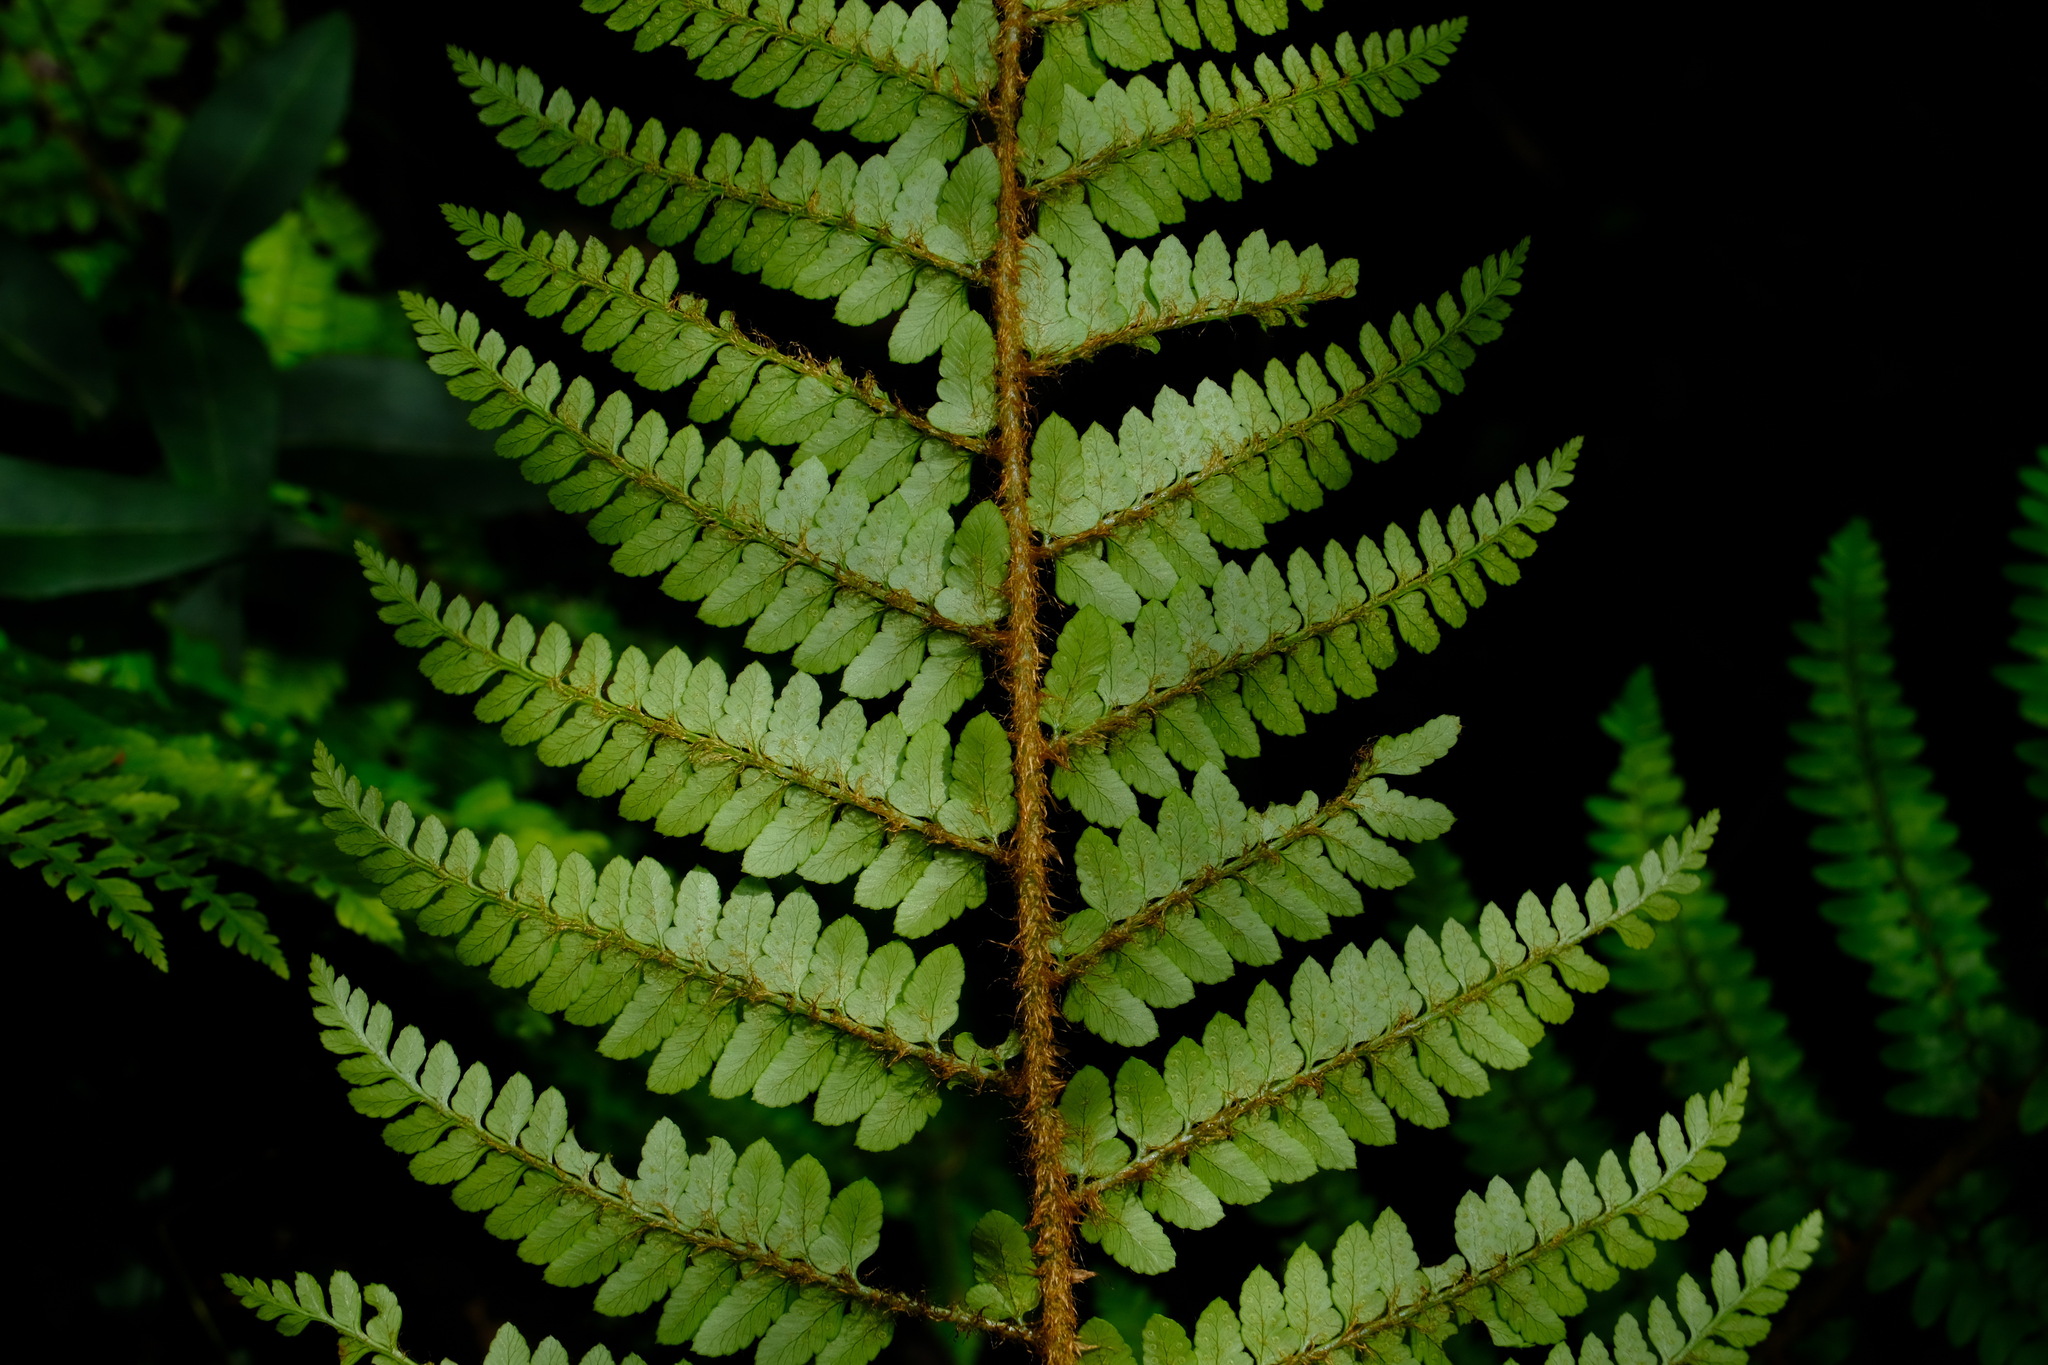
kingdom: Plantae
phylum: Tracheophyta
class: Polypodiopsida
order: Polypodiales
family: Dryopteridaceae
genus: Polystichum
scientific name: Polystichum proliferum
